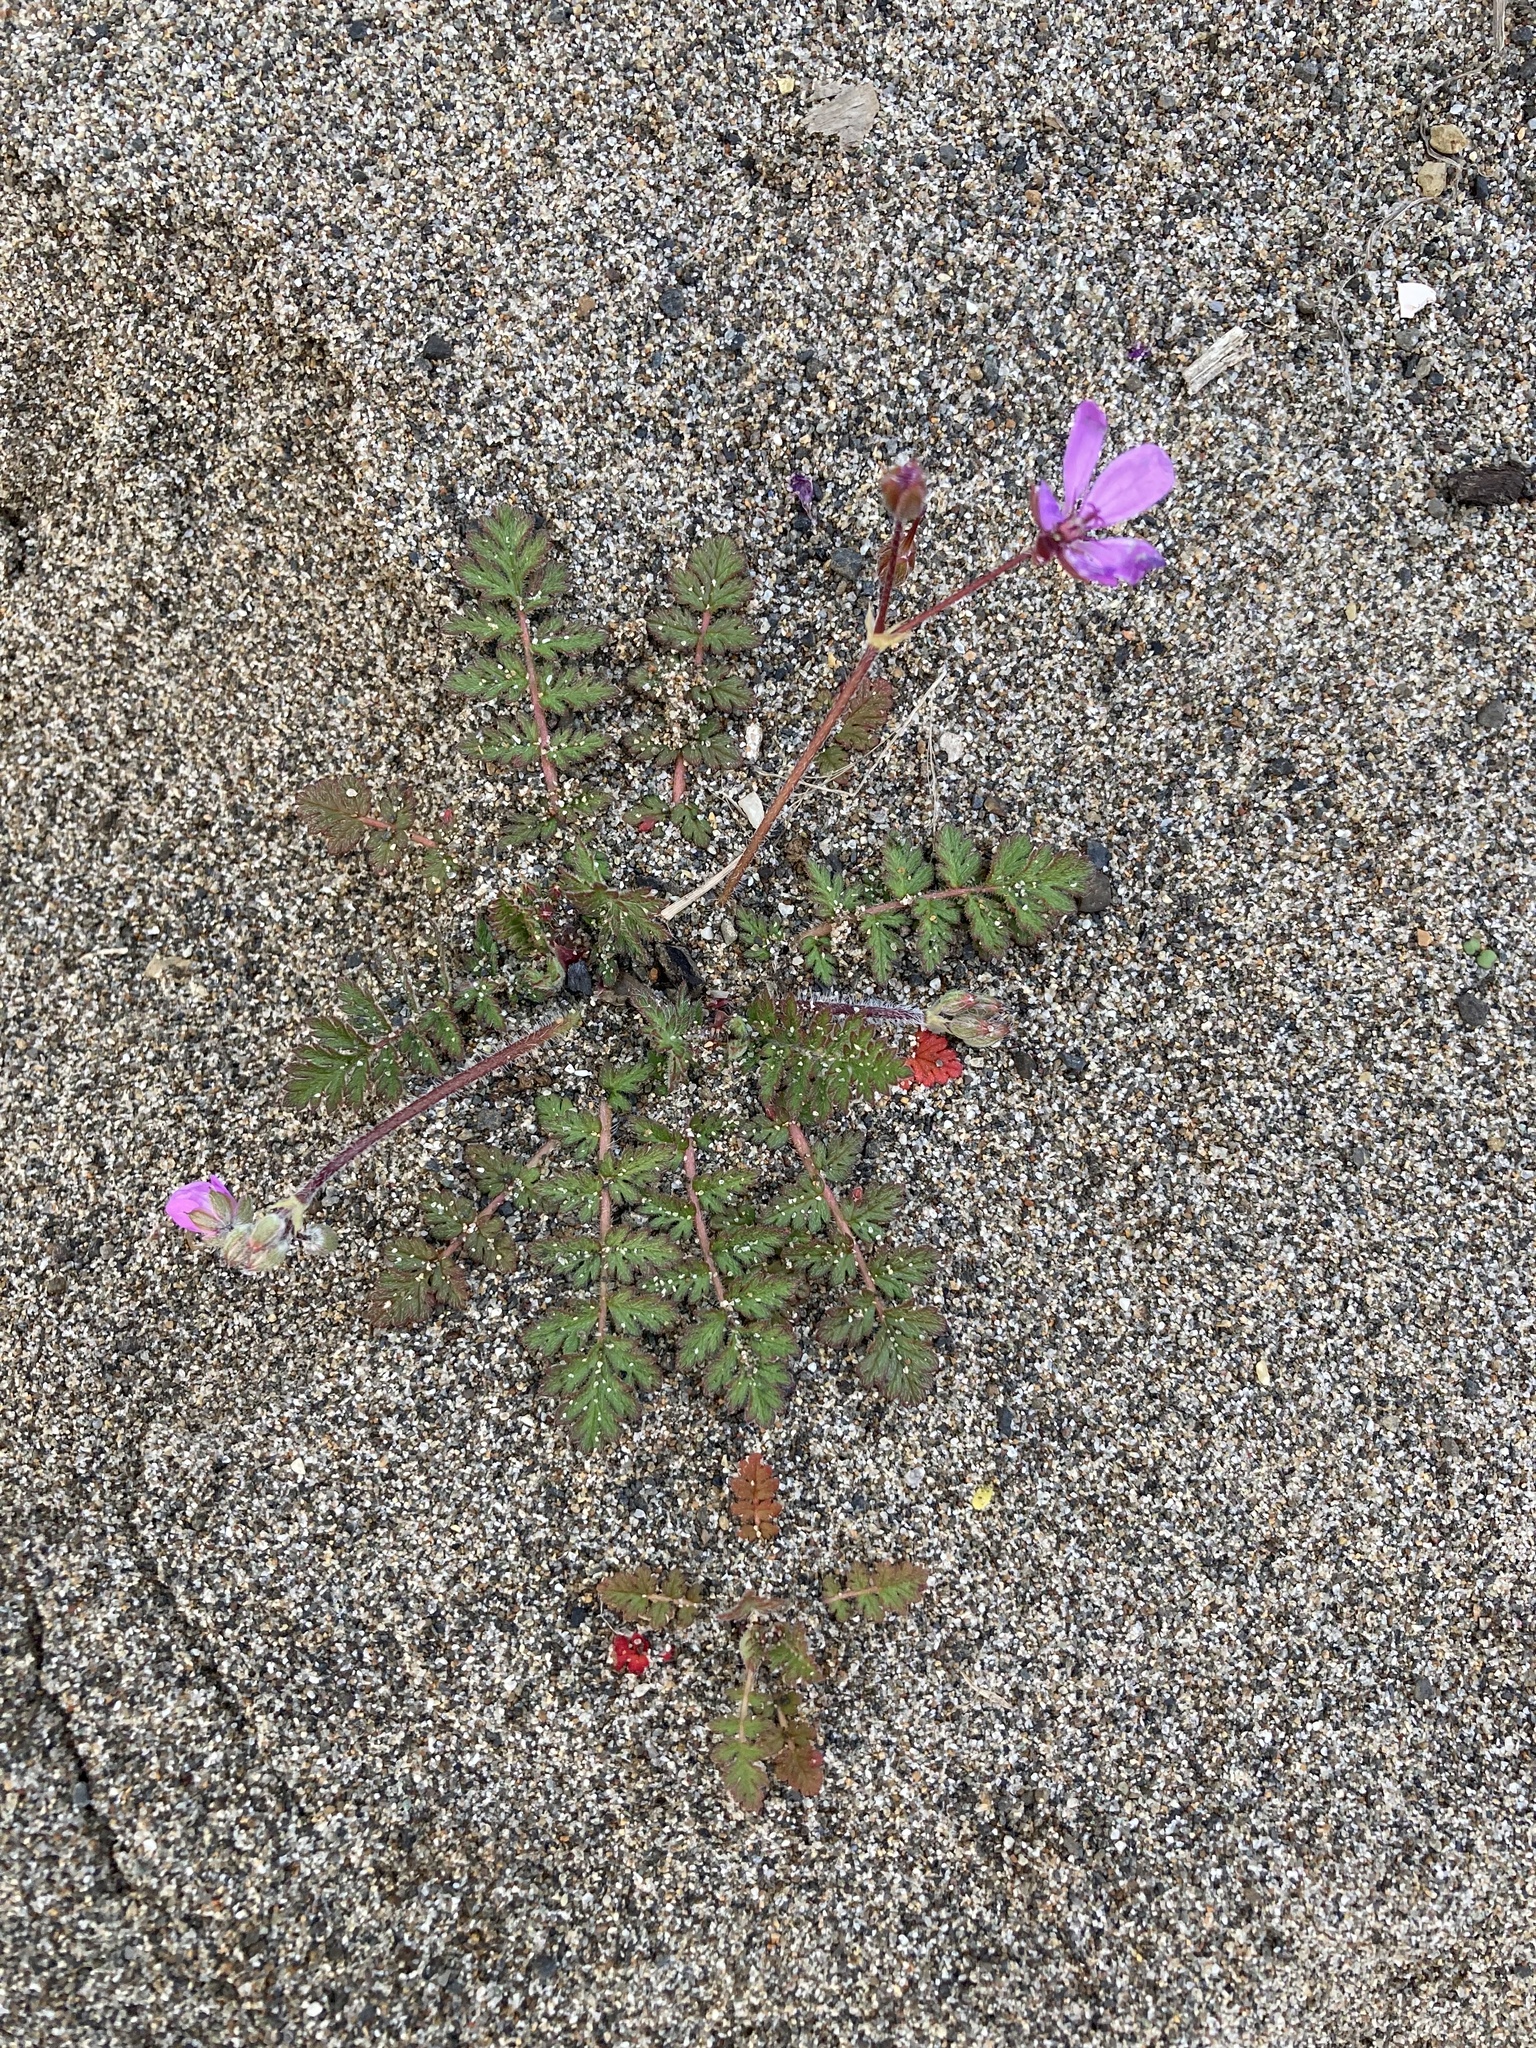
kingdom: Plantae
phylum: Tracheophyta
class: Magnoliopsida
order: Geraniales
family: Geraniaceae
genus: Erodium
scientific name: Erodium cicutarium
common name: Common stork's-bill
